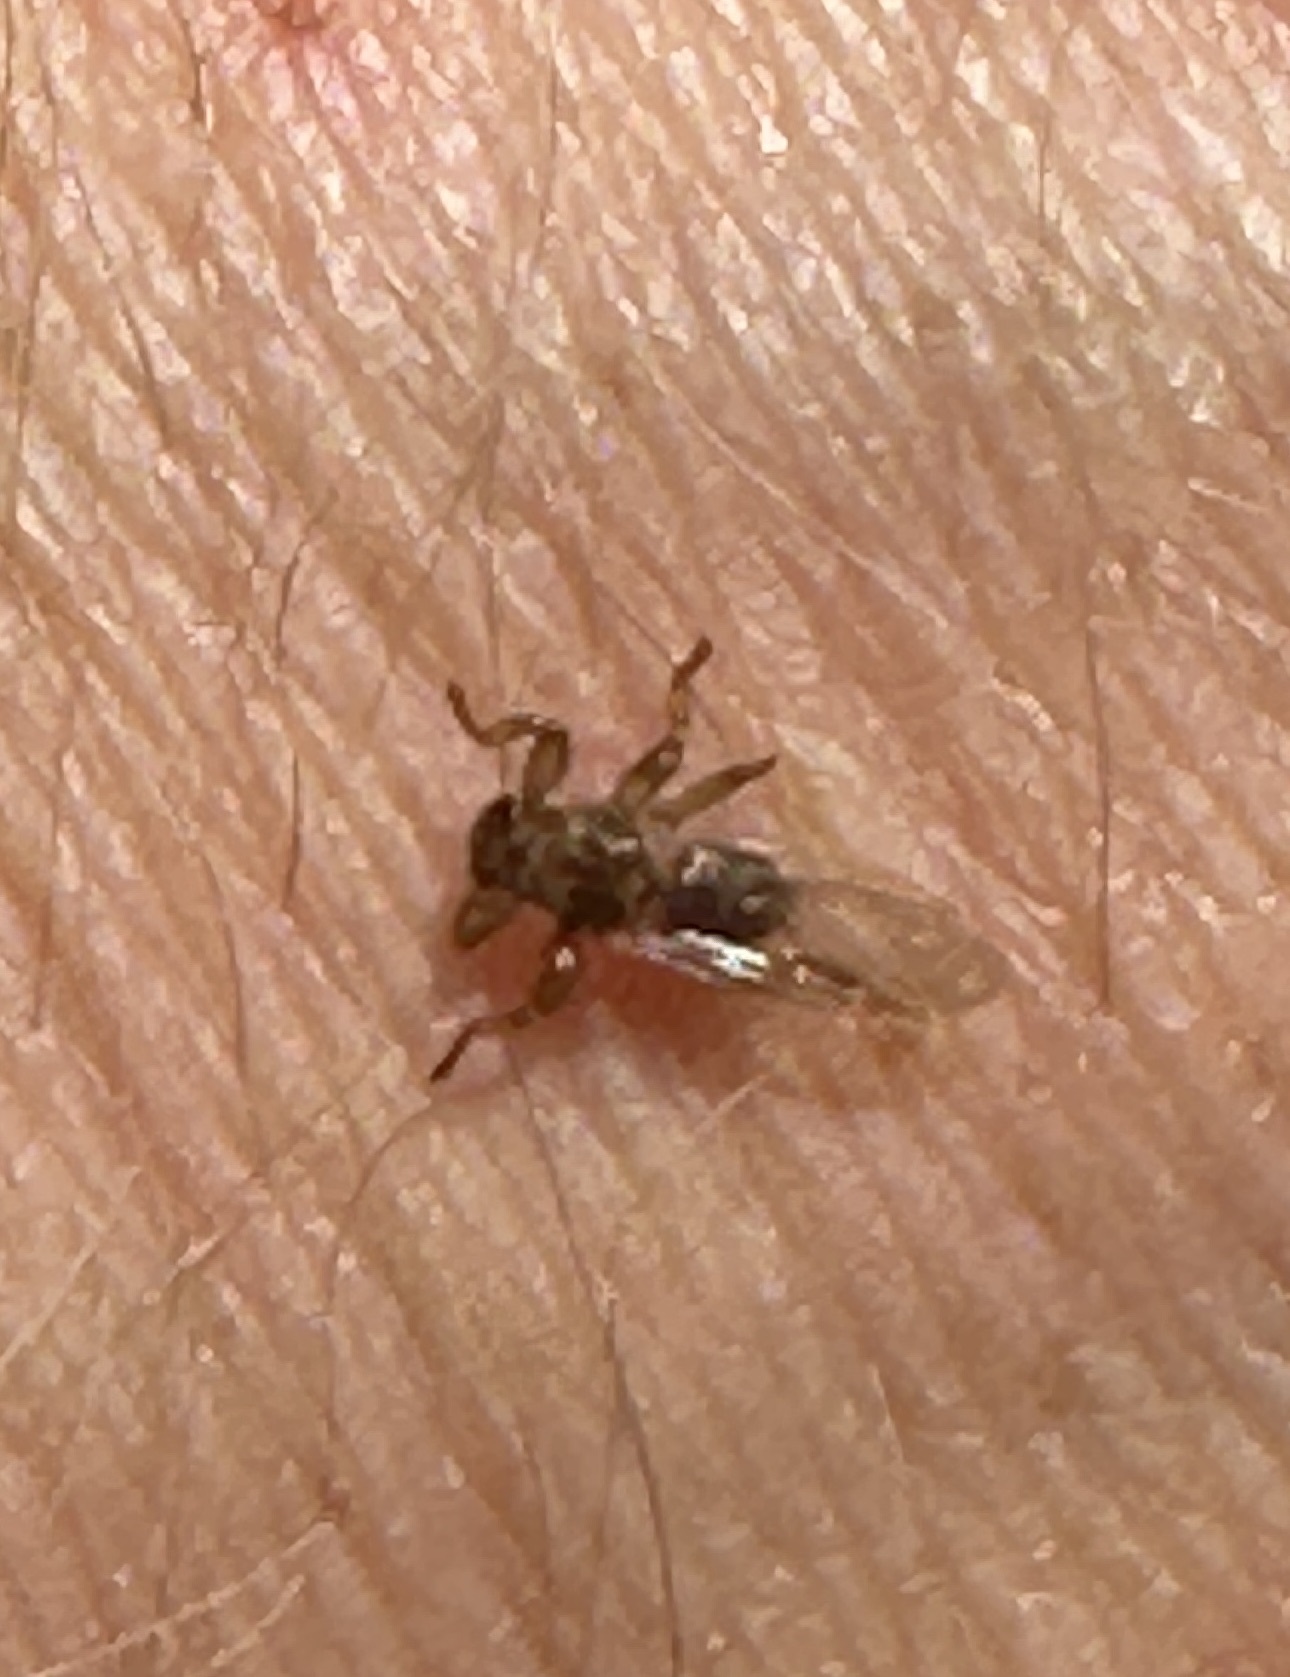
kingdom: Animalia
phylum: Arthropoda
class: Insecta
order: Diptera
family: Hippoboscidae
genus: Lipoptena
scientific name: Lipoptena cervi
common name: Deer ked
